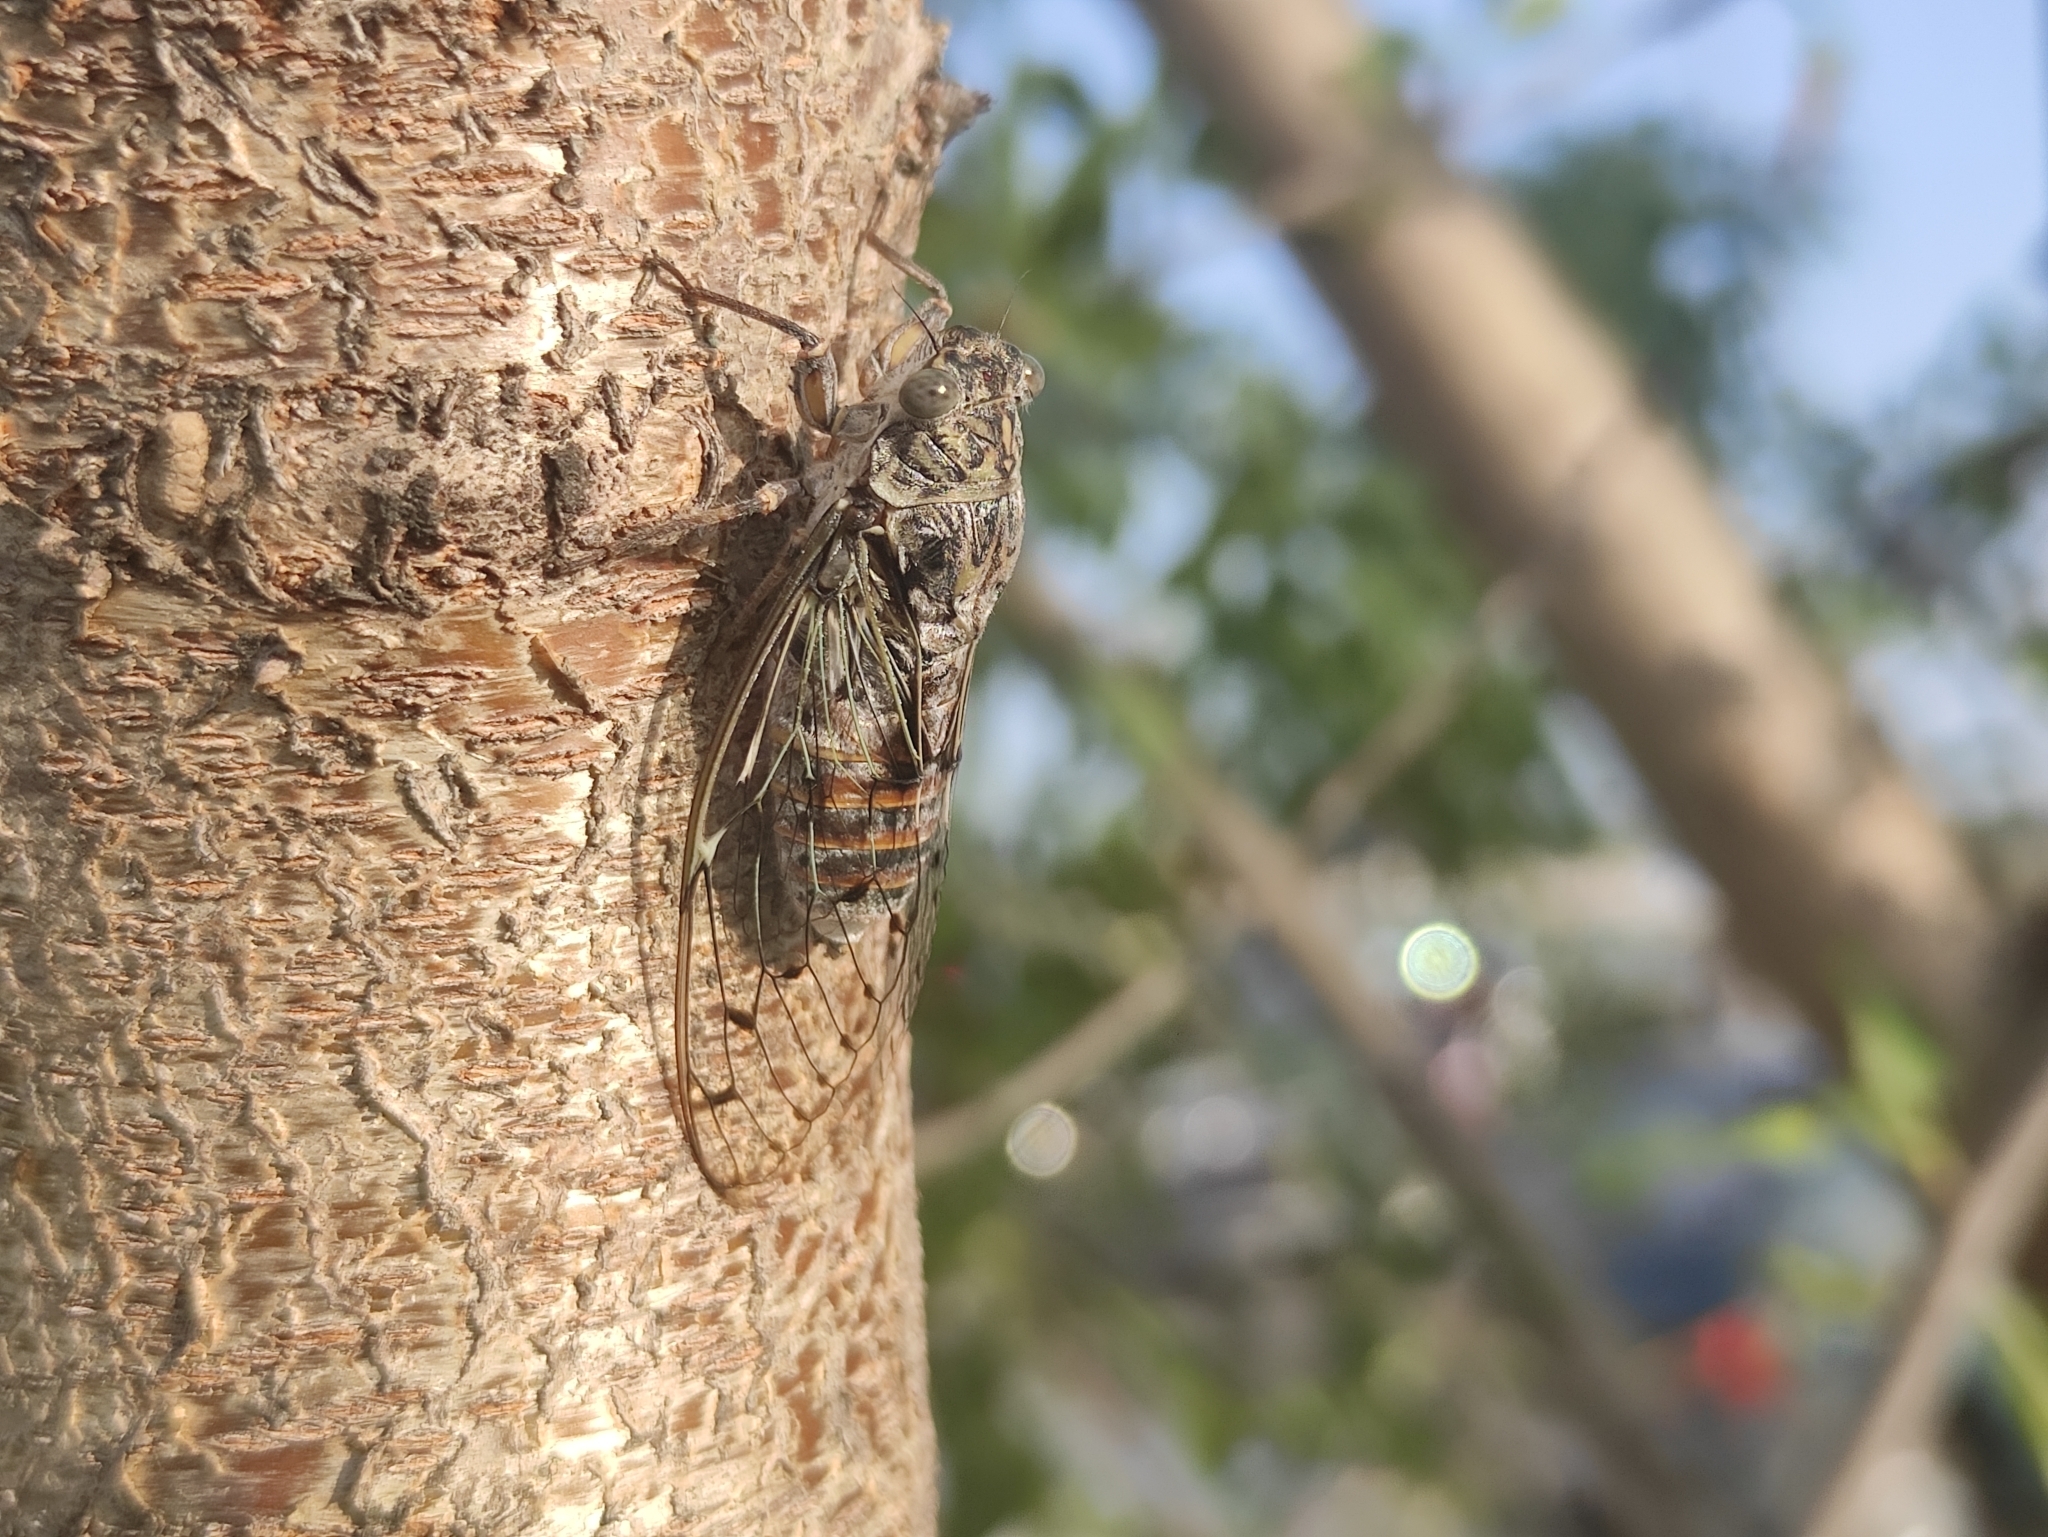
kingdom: Animalia
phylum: Arthropoda
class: Insecta
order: Hemiptera
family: Cicadidae
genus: Cicada
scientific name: Cicada orni
